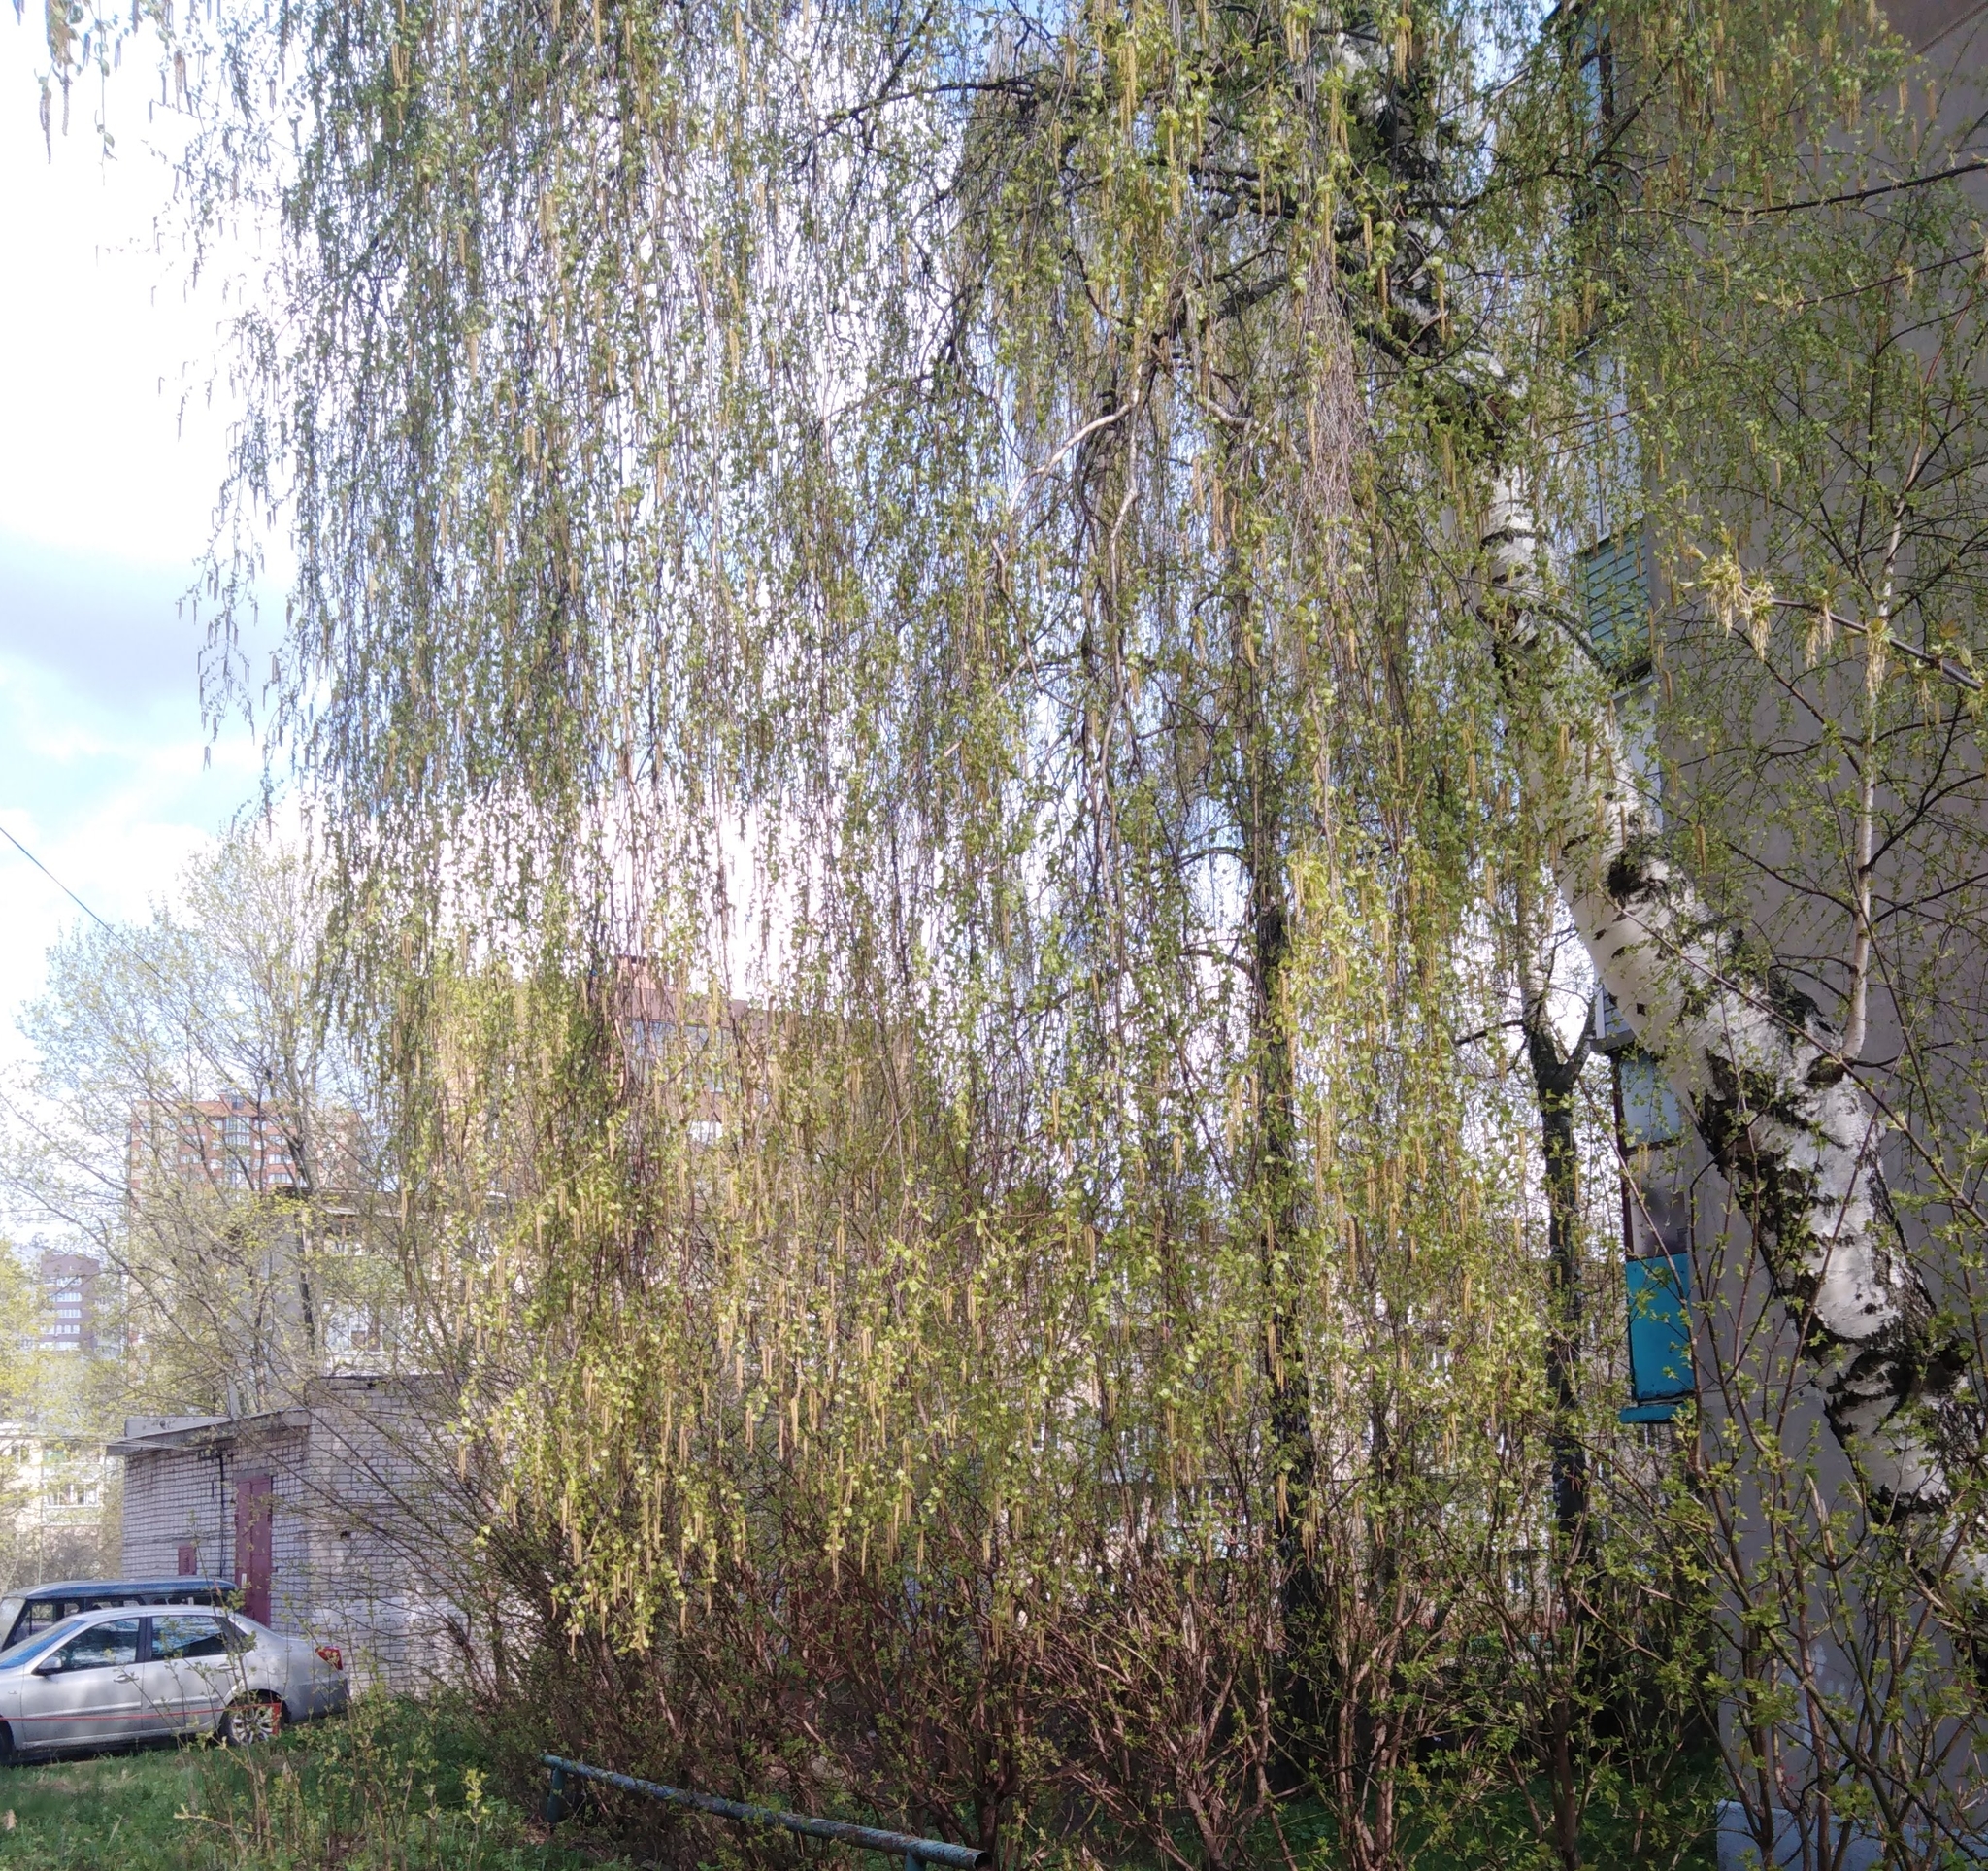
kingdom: Plantae
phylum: Tracheophyta
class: Magnoliopsida
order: Fagales
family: Betulaceae
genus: Betula
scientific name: Betula pendula
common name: Silver birch
